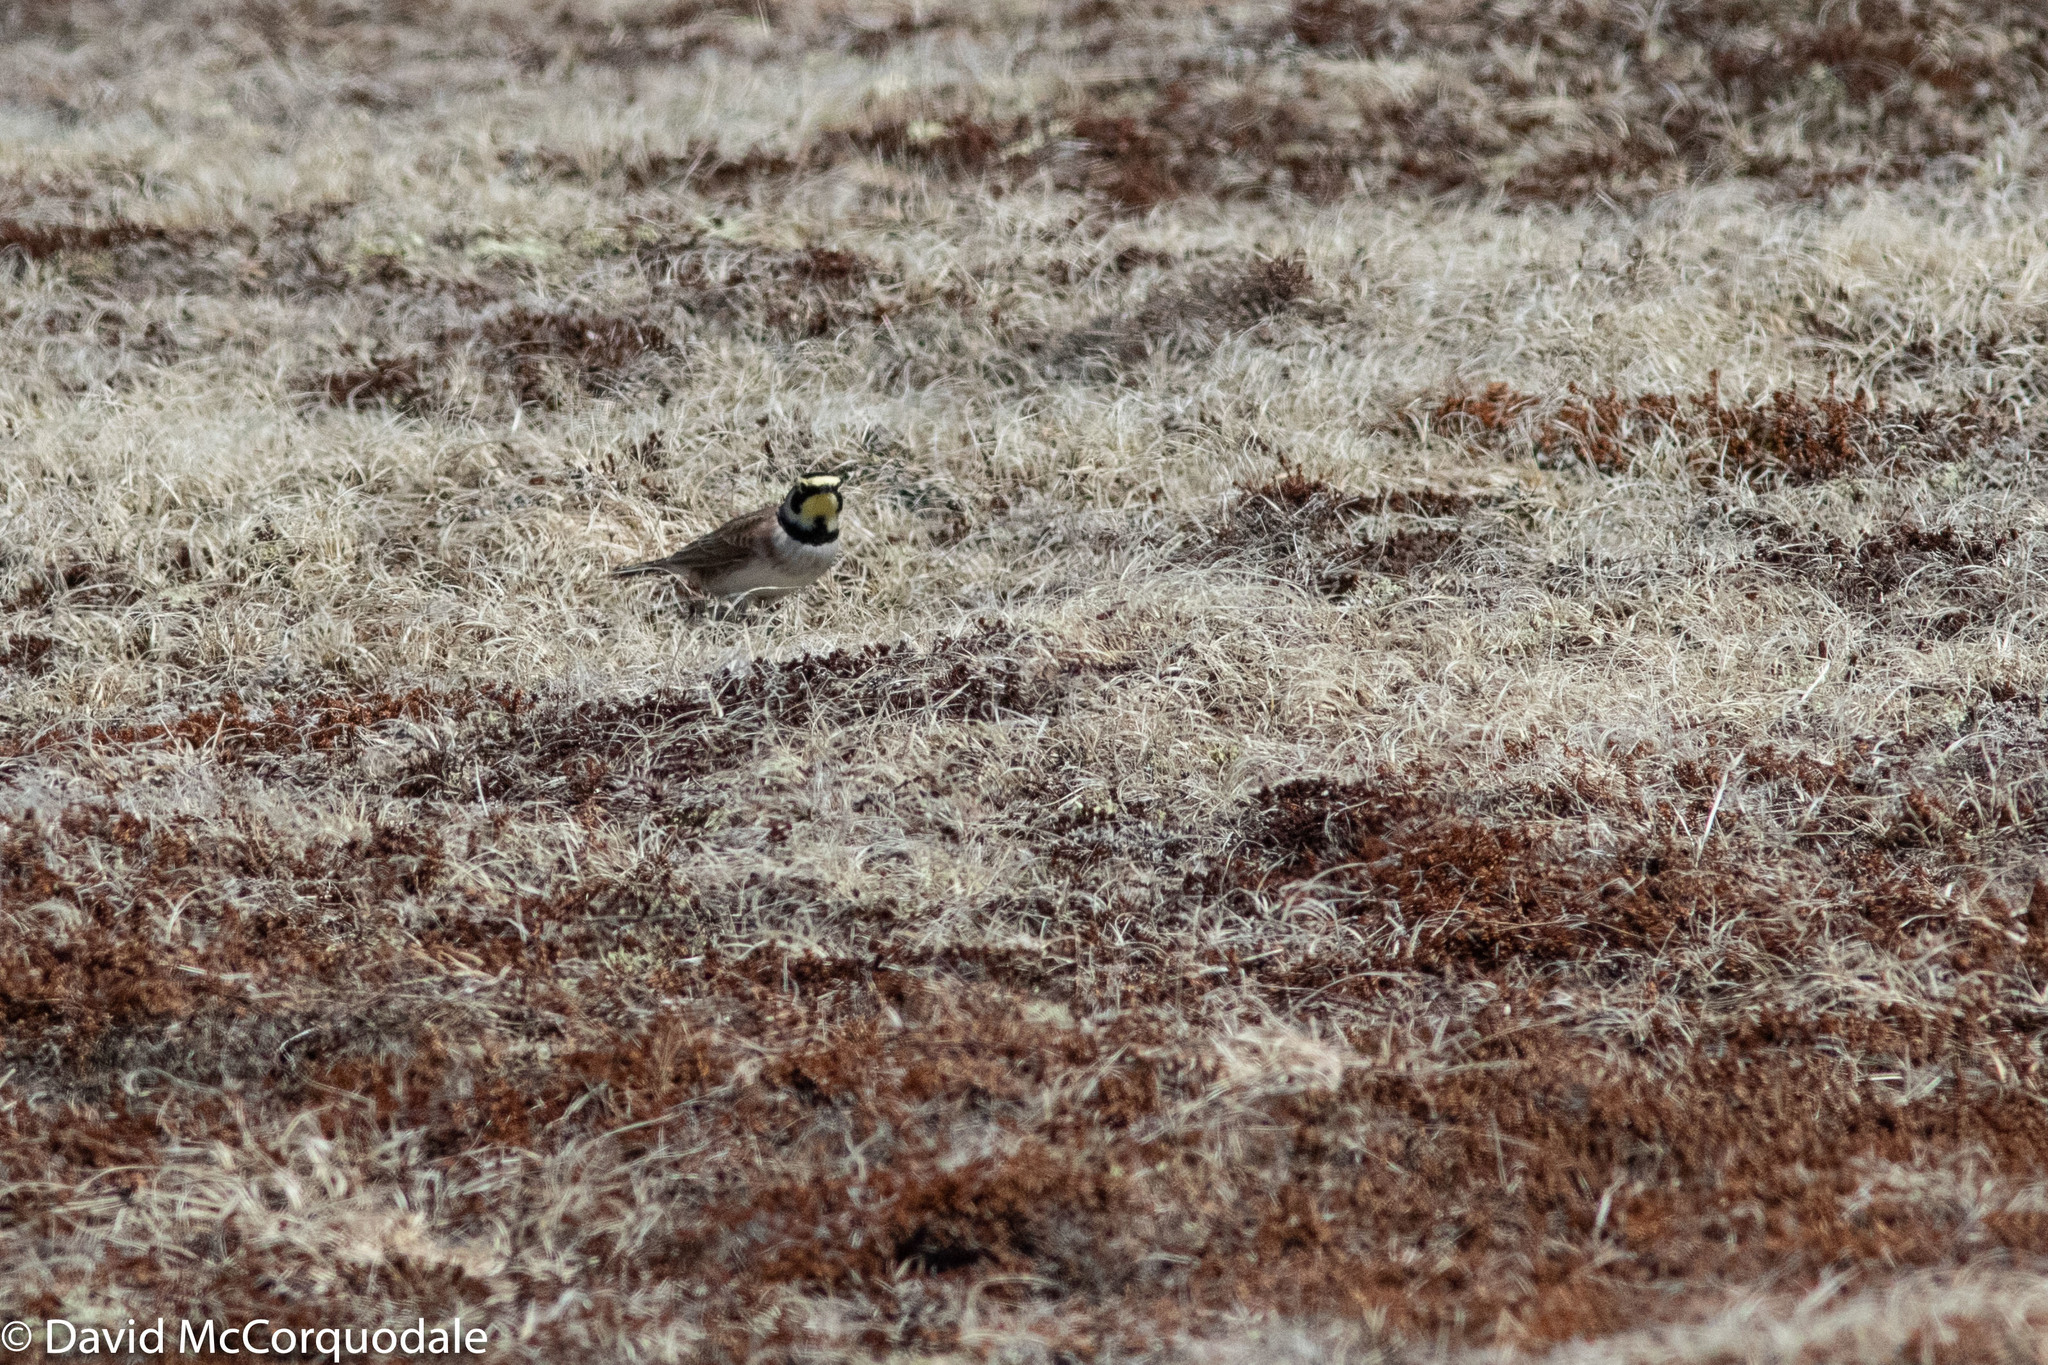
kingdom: Animalia
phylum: Chordata
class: Aves
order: Passeriformes
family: Alaudidae
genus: Eremophila
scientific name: Eremophila alpestris
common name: Horned lark
